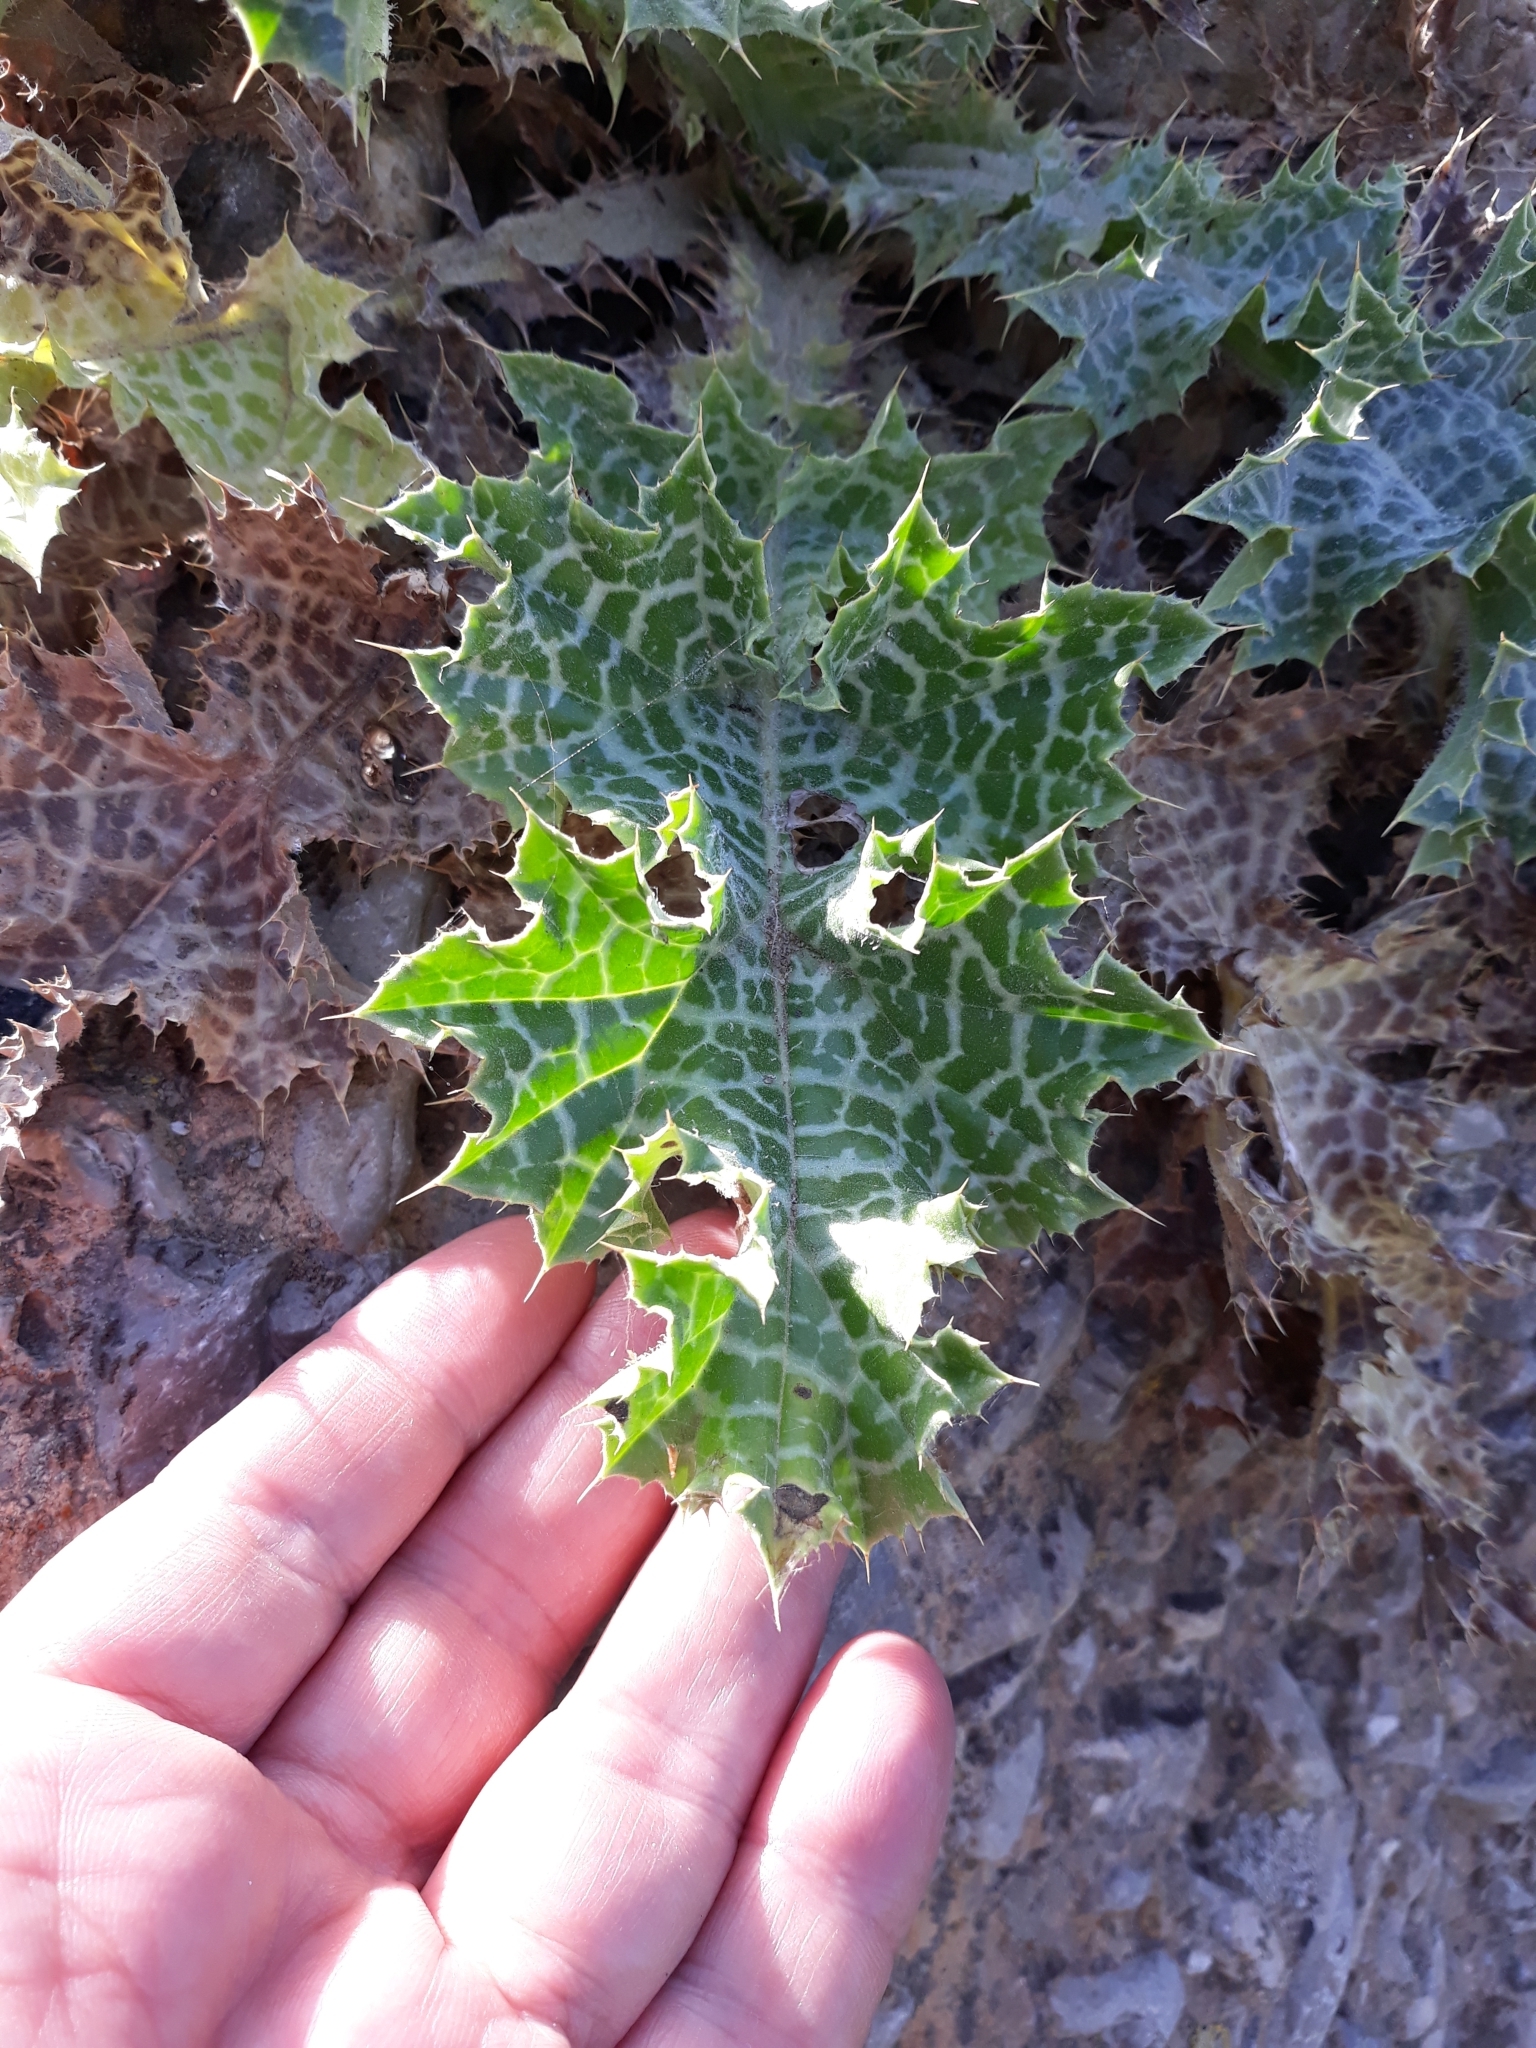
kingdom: Plantae
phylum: Tracheophyta
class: Magnoliopsida
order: Asterales
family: Asteraceae
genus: Silybum
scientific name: Silybum marianum
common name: Milk thistle
